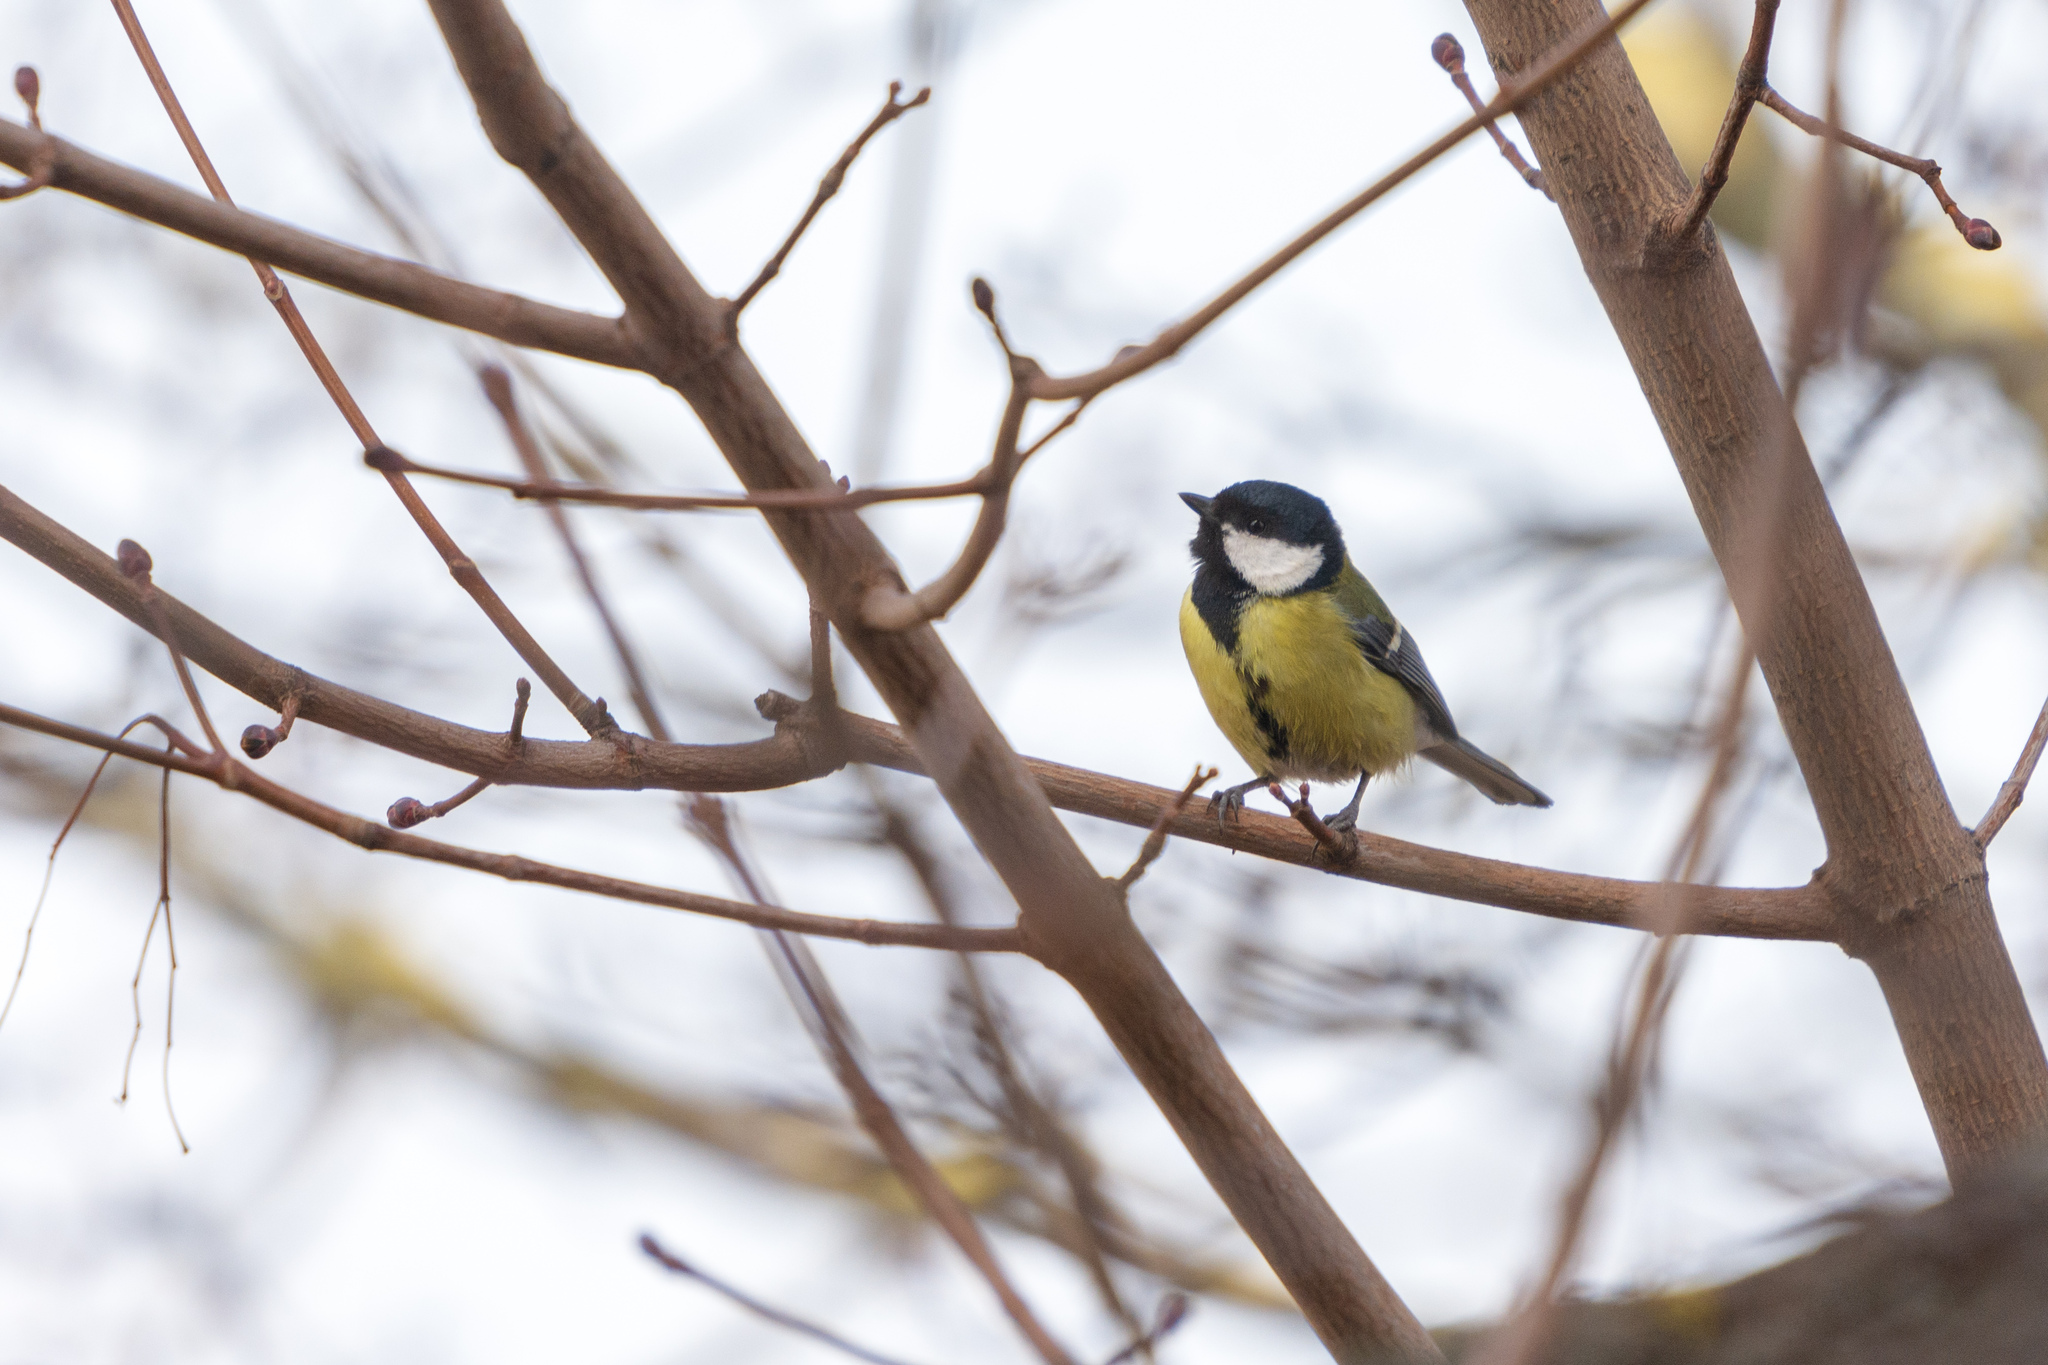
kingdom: Animalia
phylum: Chordata
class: Aves
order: Passeriformes
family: Paridae
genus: Parus
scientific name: Parus major
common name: Great tit
